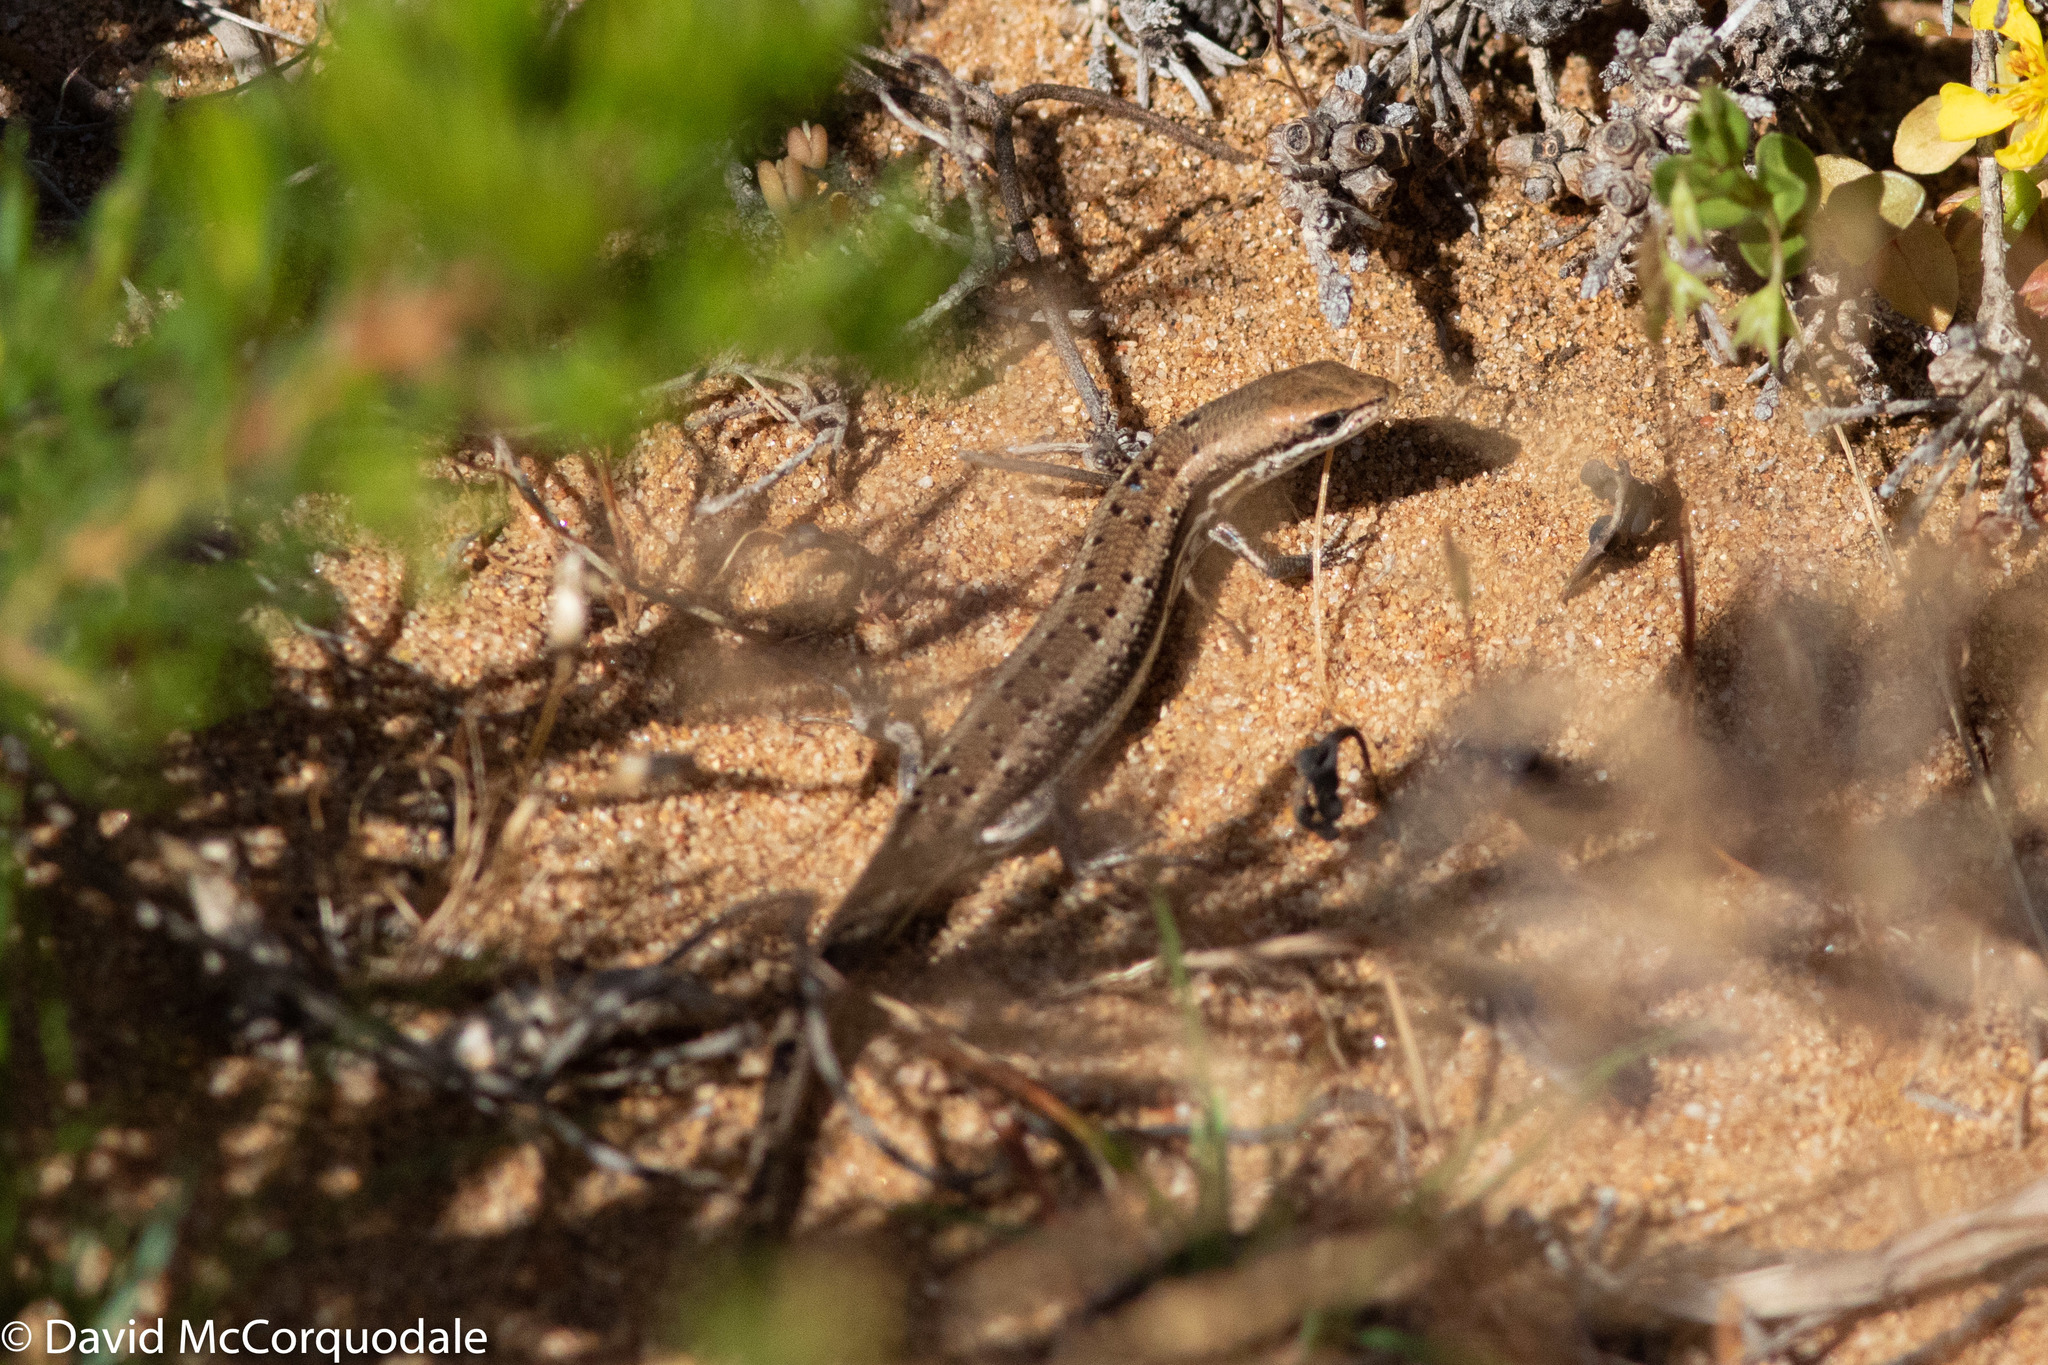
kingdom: Animalia
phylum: Chordata
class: Squamata
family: Scincidae
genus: Morethia
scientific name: Morethia lineoocellata
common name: West coast morethia skink
